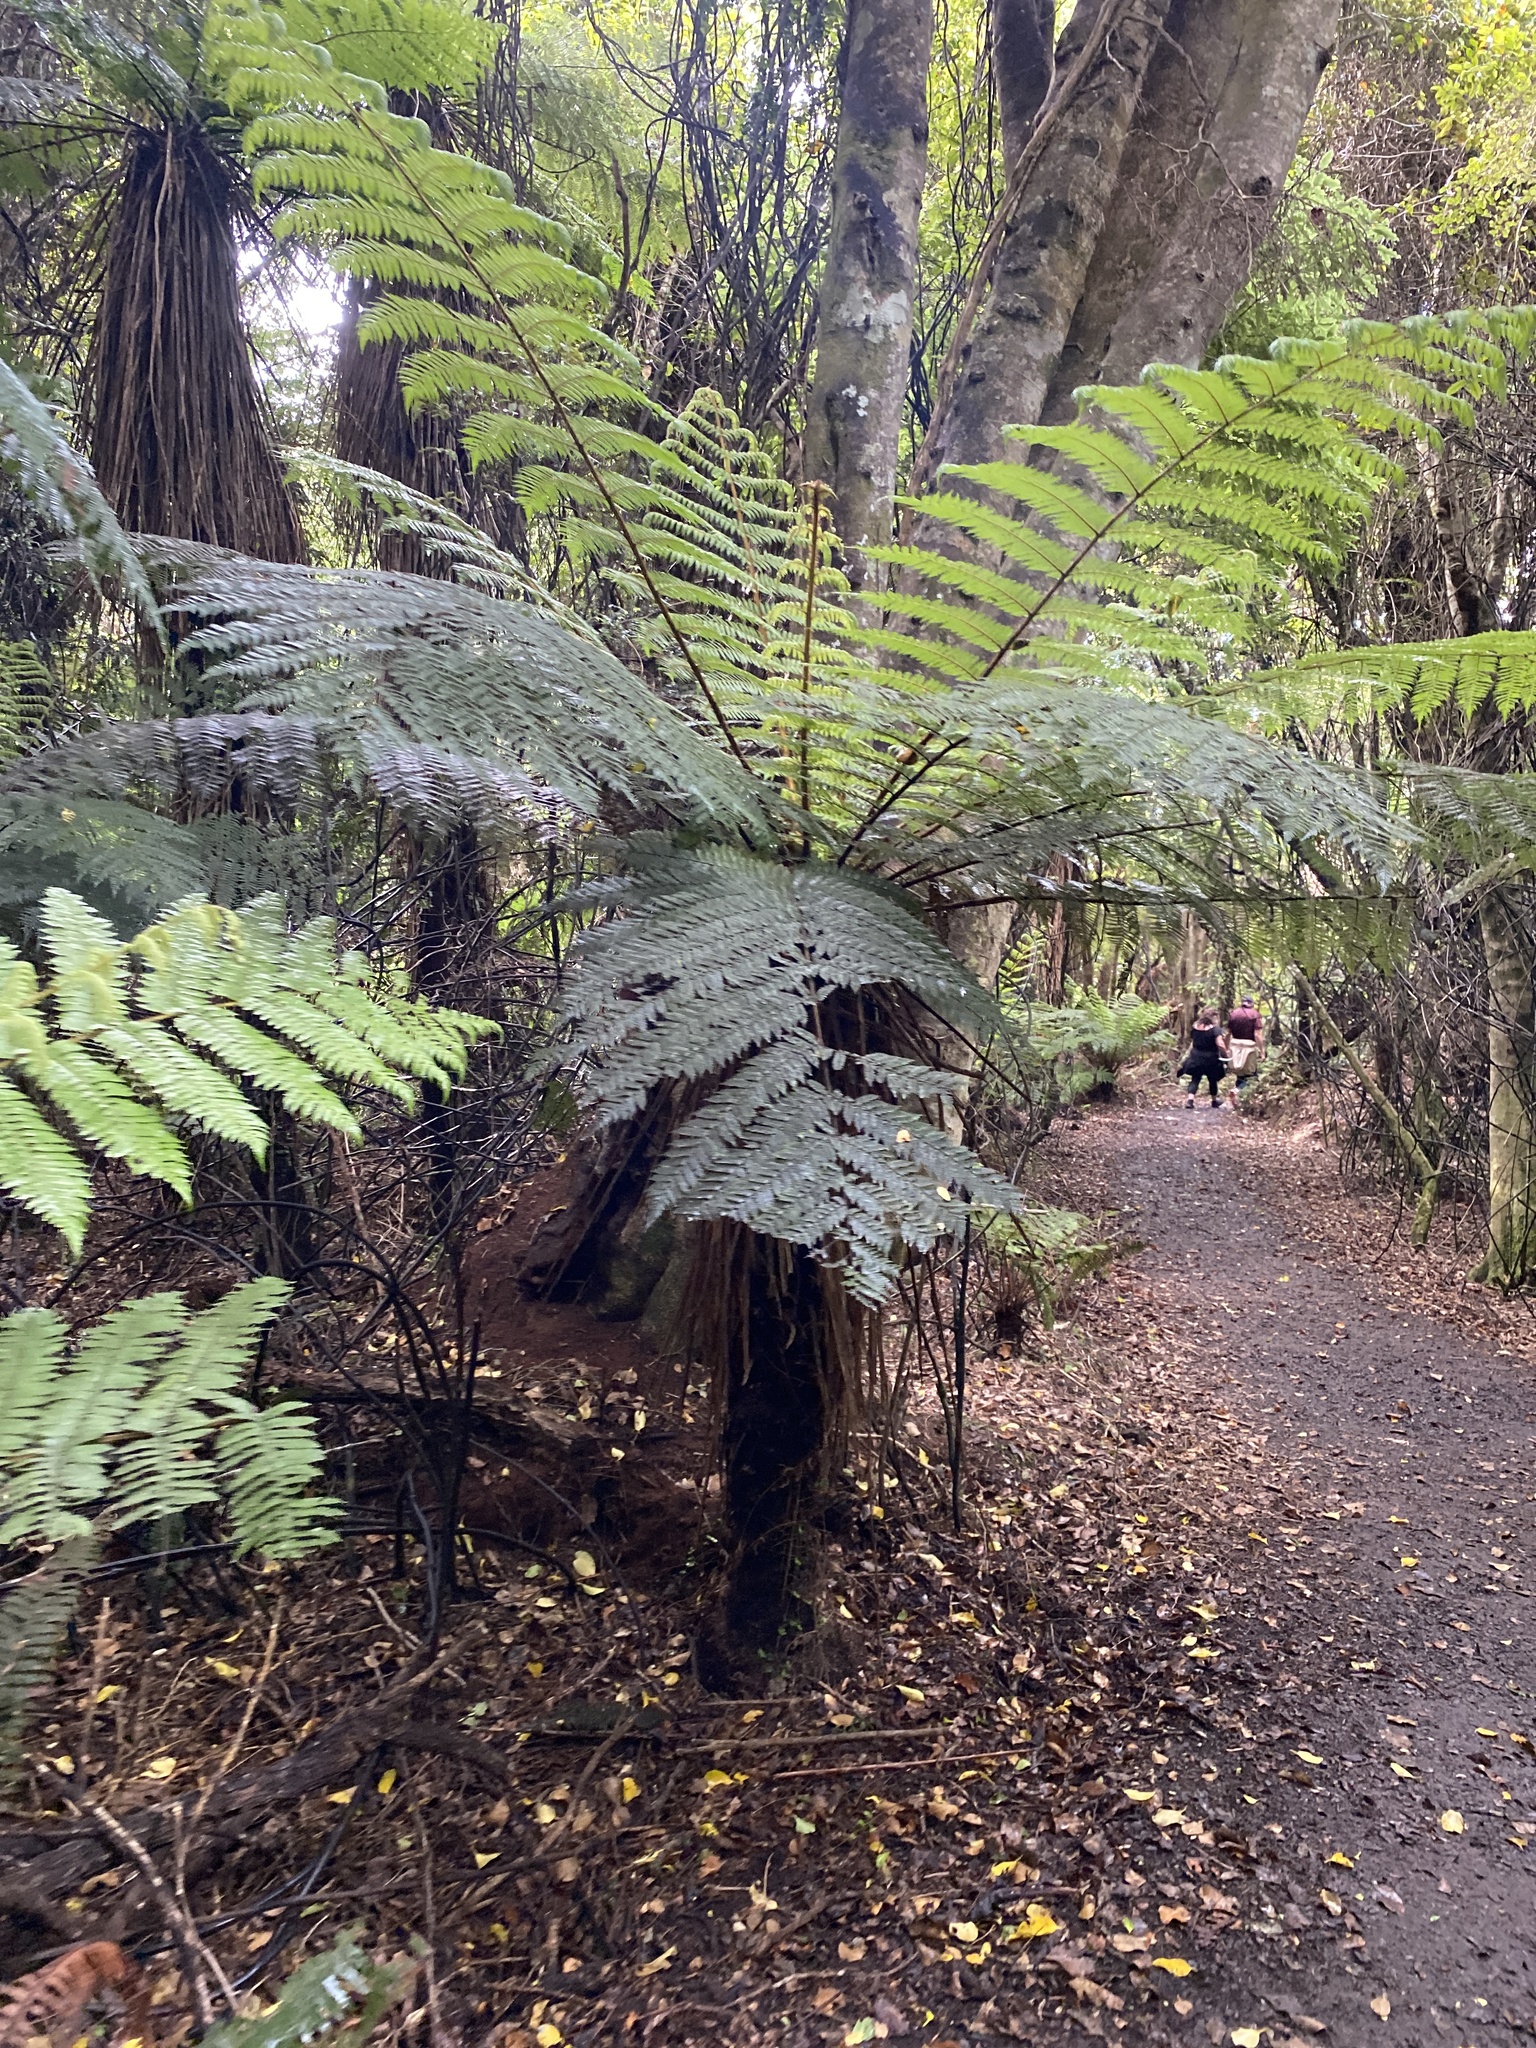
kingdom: Plantae
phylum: Tracheophyta
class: Polypodiopsida
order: Cyatheales
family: Cyatheaceae
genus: Alsophila
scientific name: Alsophila smithii
